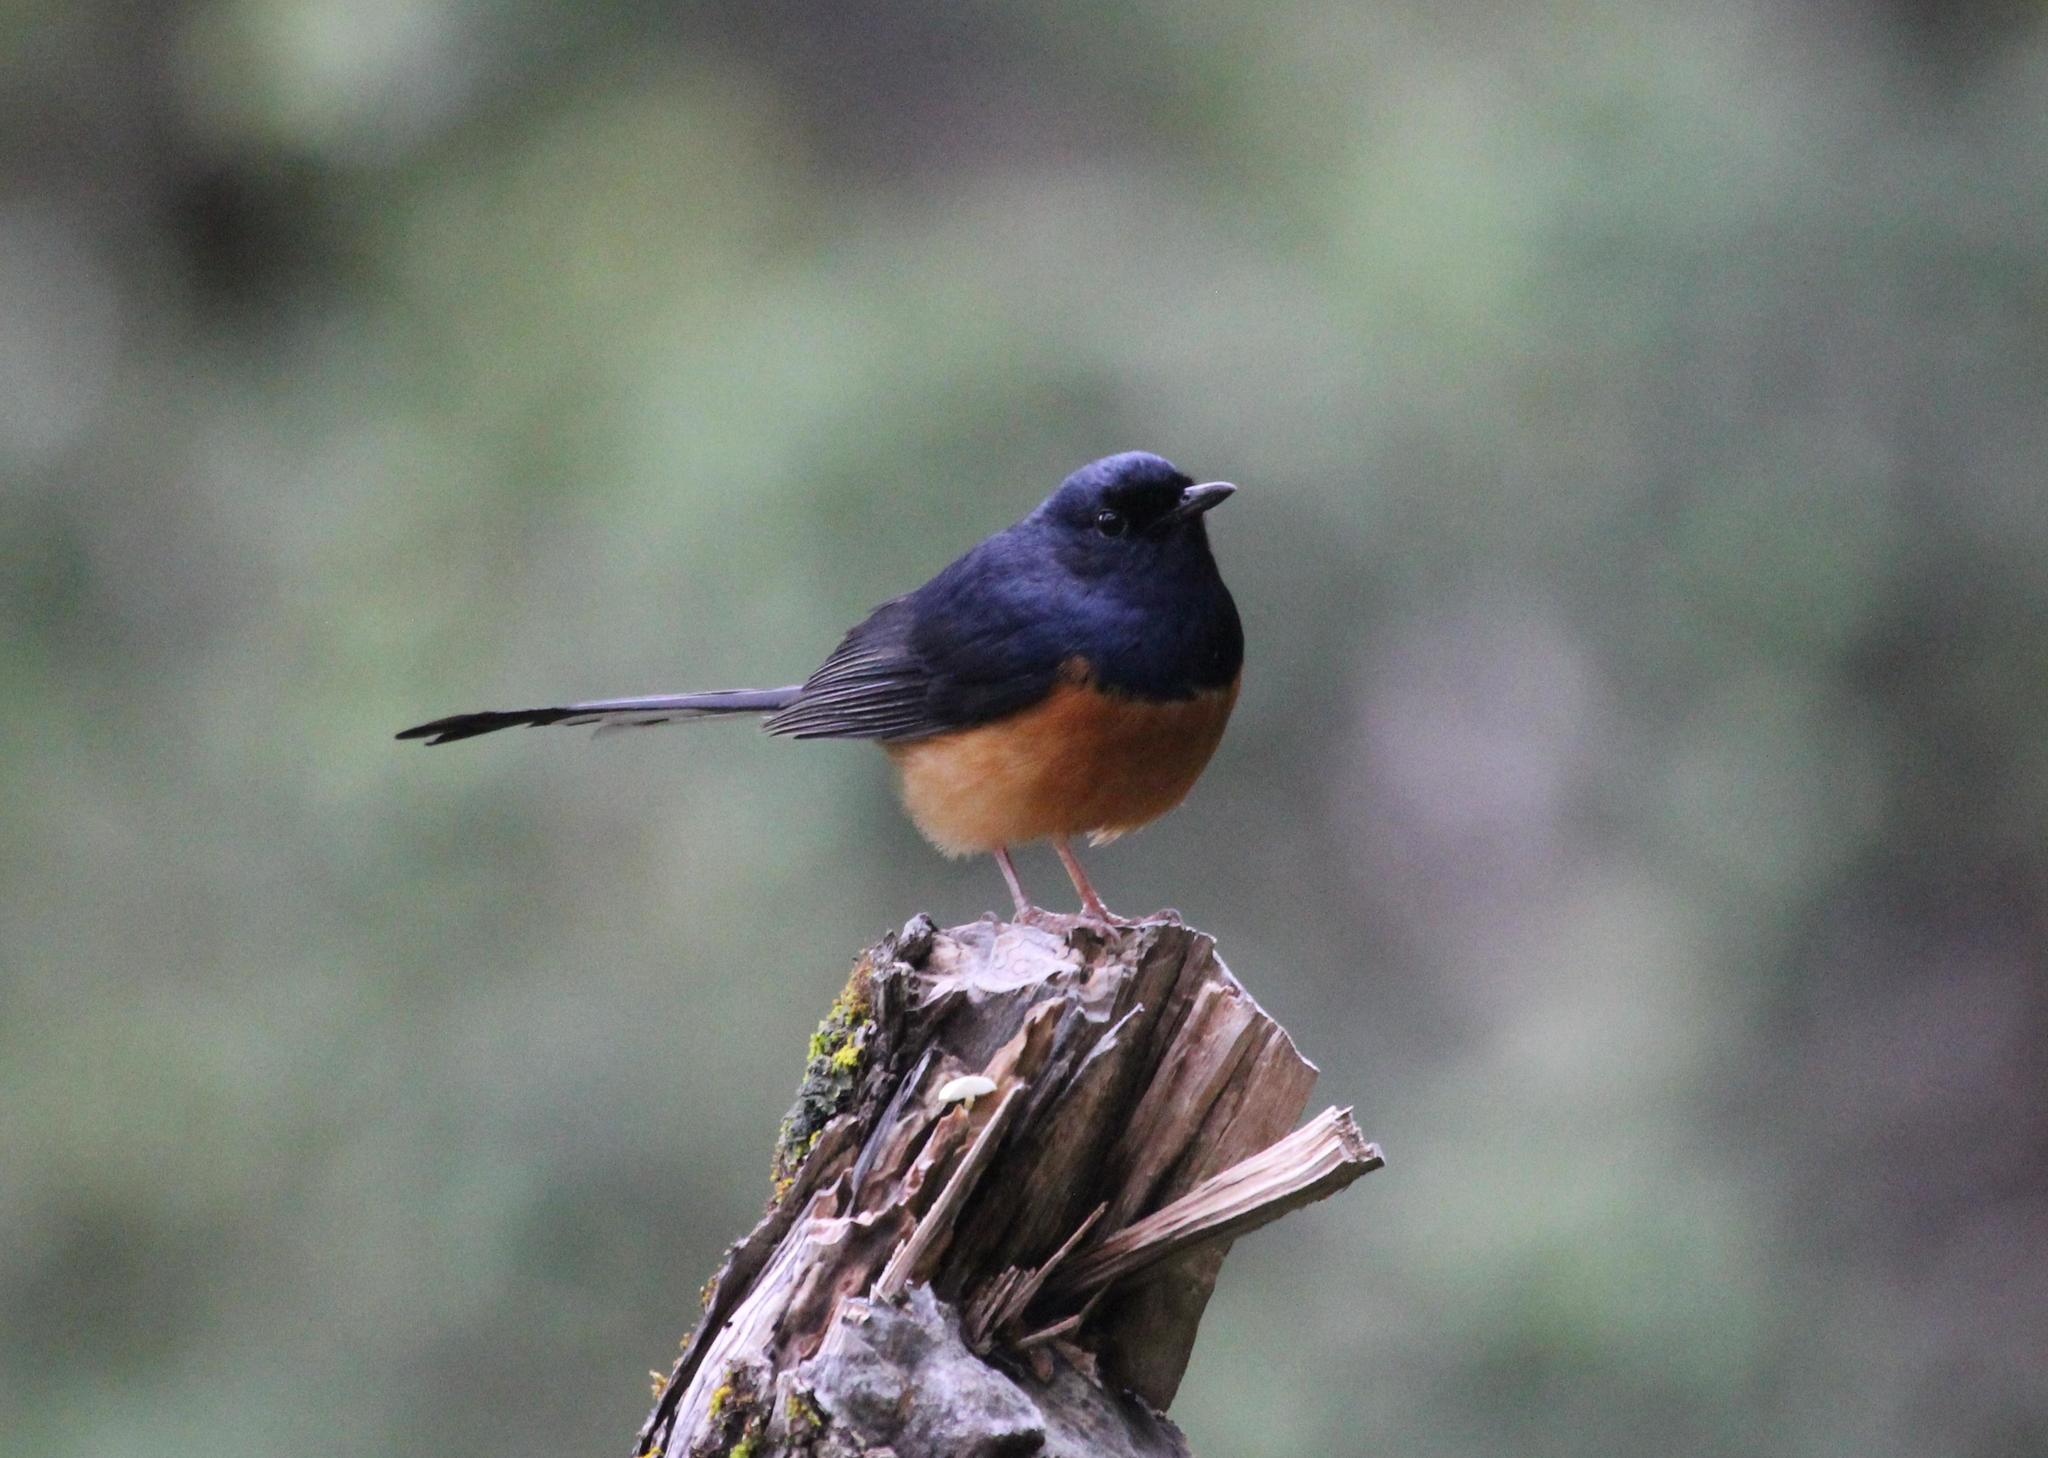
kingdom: Animalia
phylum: Chordata
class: Aves
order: Passeriformes
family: Muscicapidae
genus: Copsychus
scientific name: Copsychus malabaricus
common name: White-rumped shama
